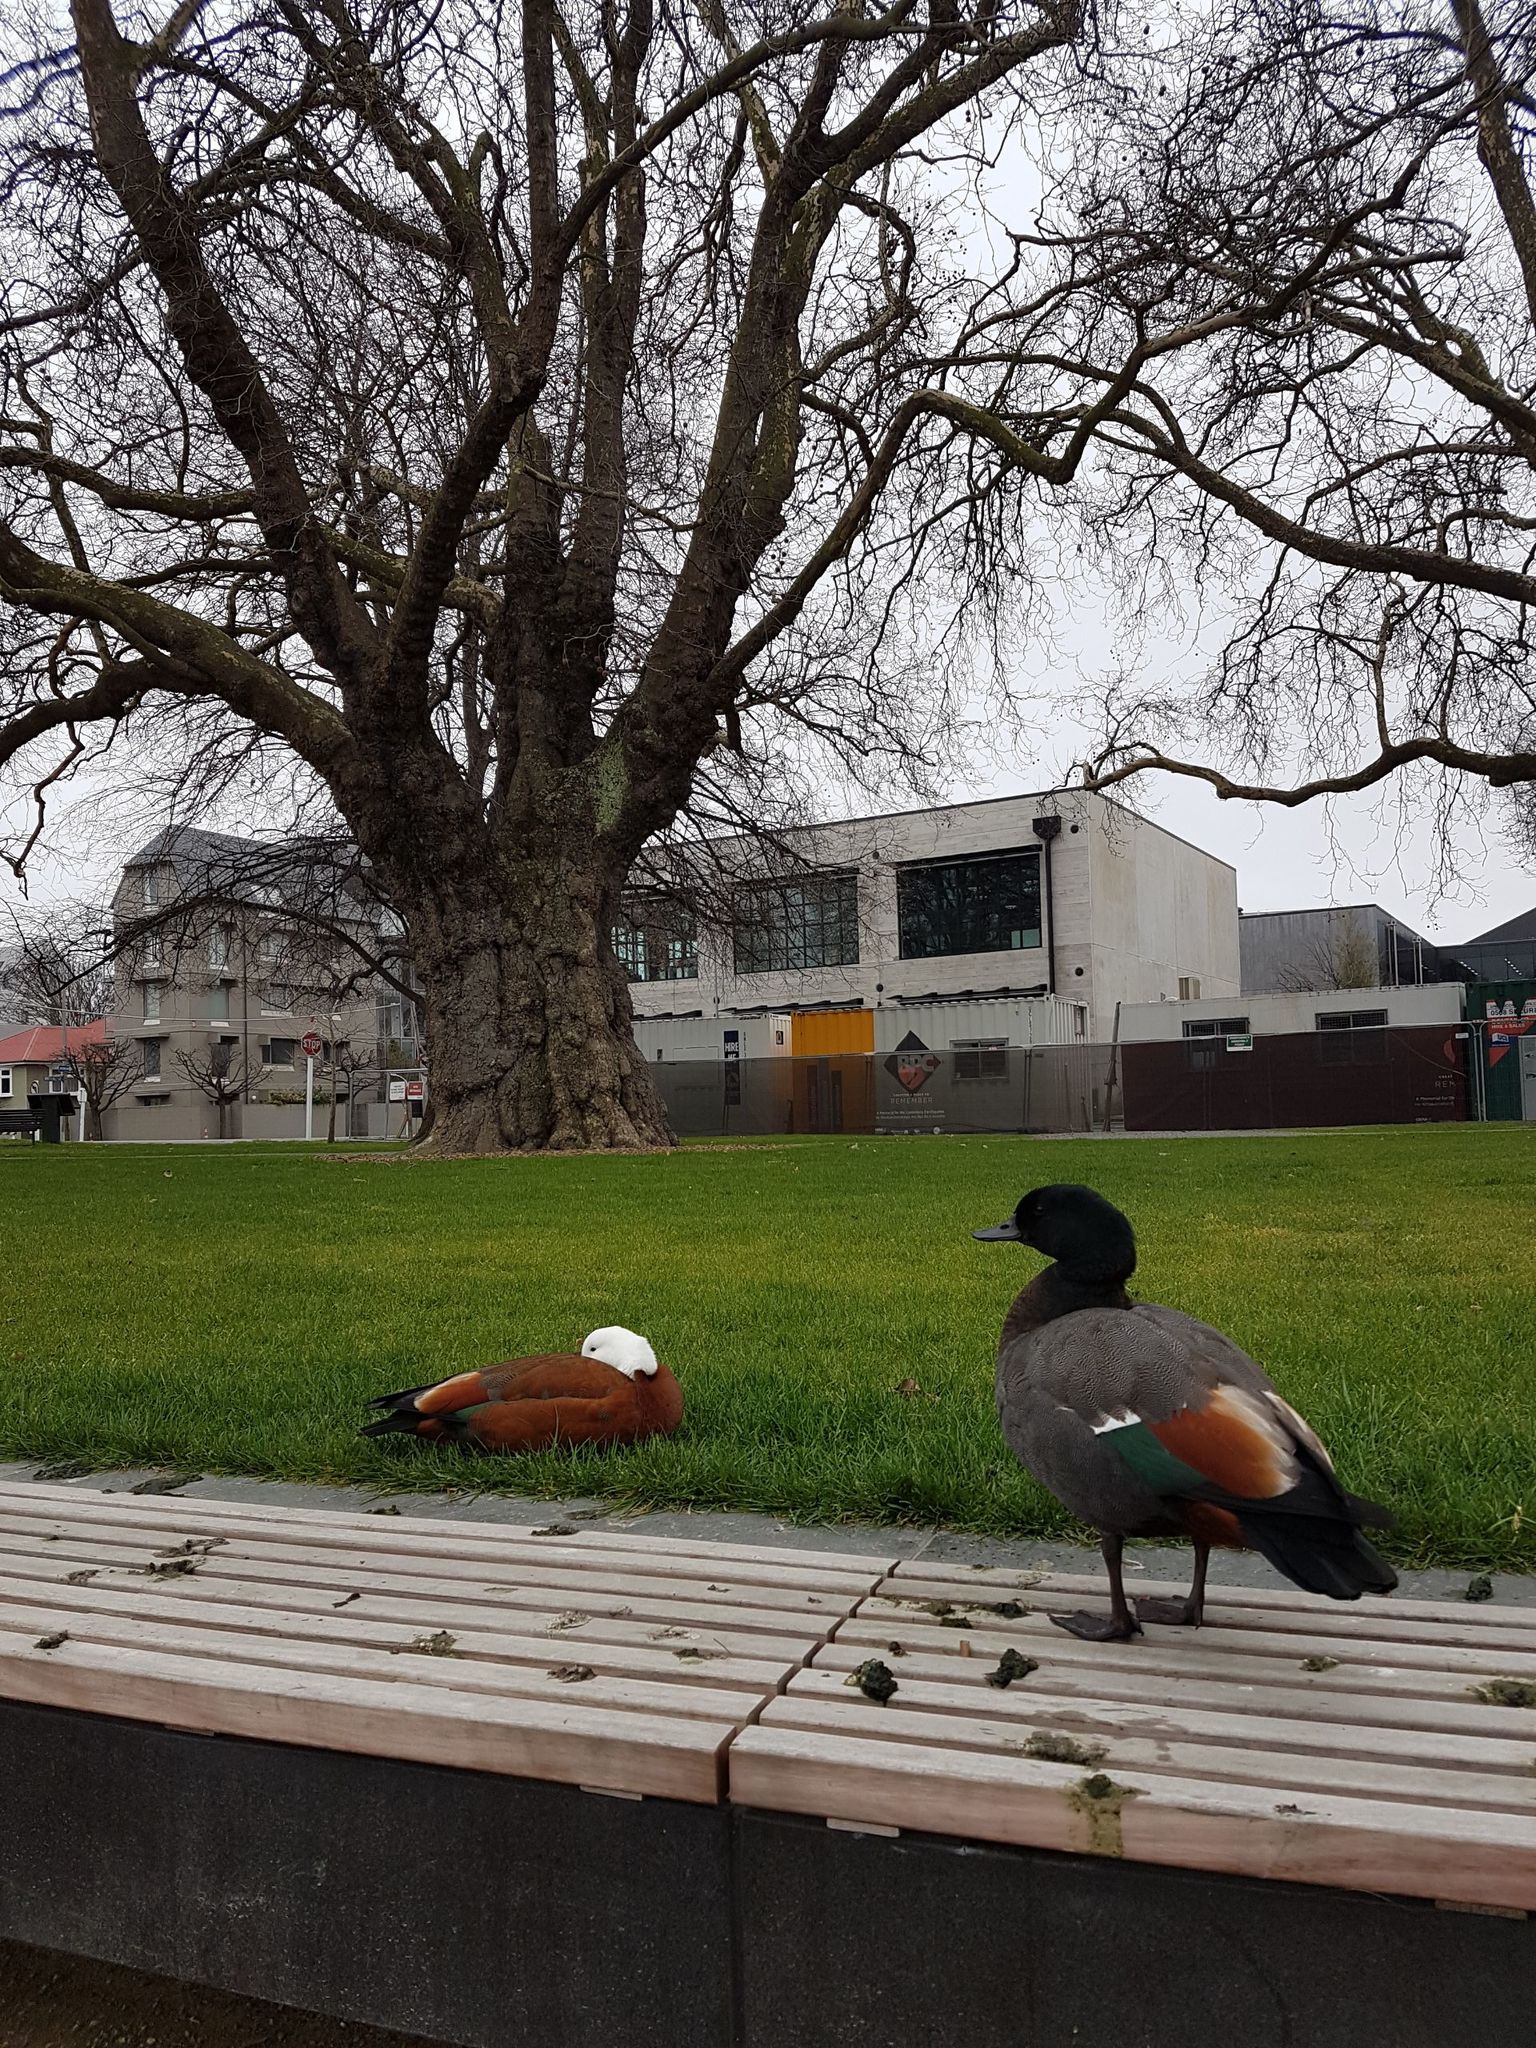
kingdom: Animalia
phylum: Chordata
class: Aves
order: Anseriformes
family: Anatidae
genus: Tadorna
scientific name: Tadorna variegata
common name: Paradise shelduck
